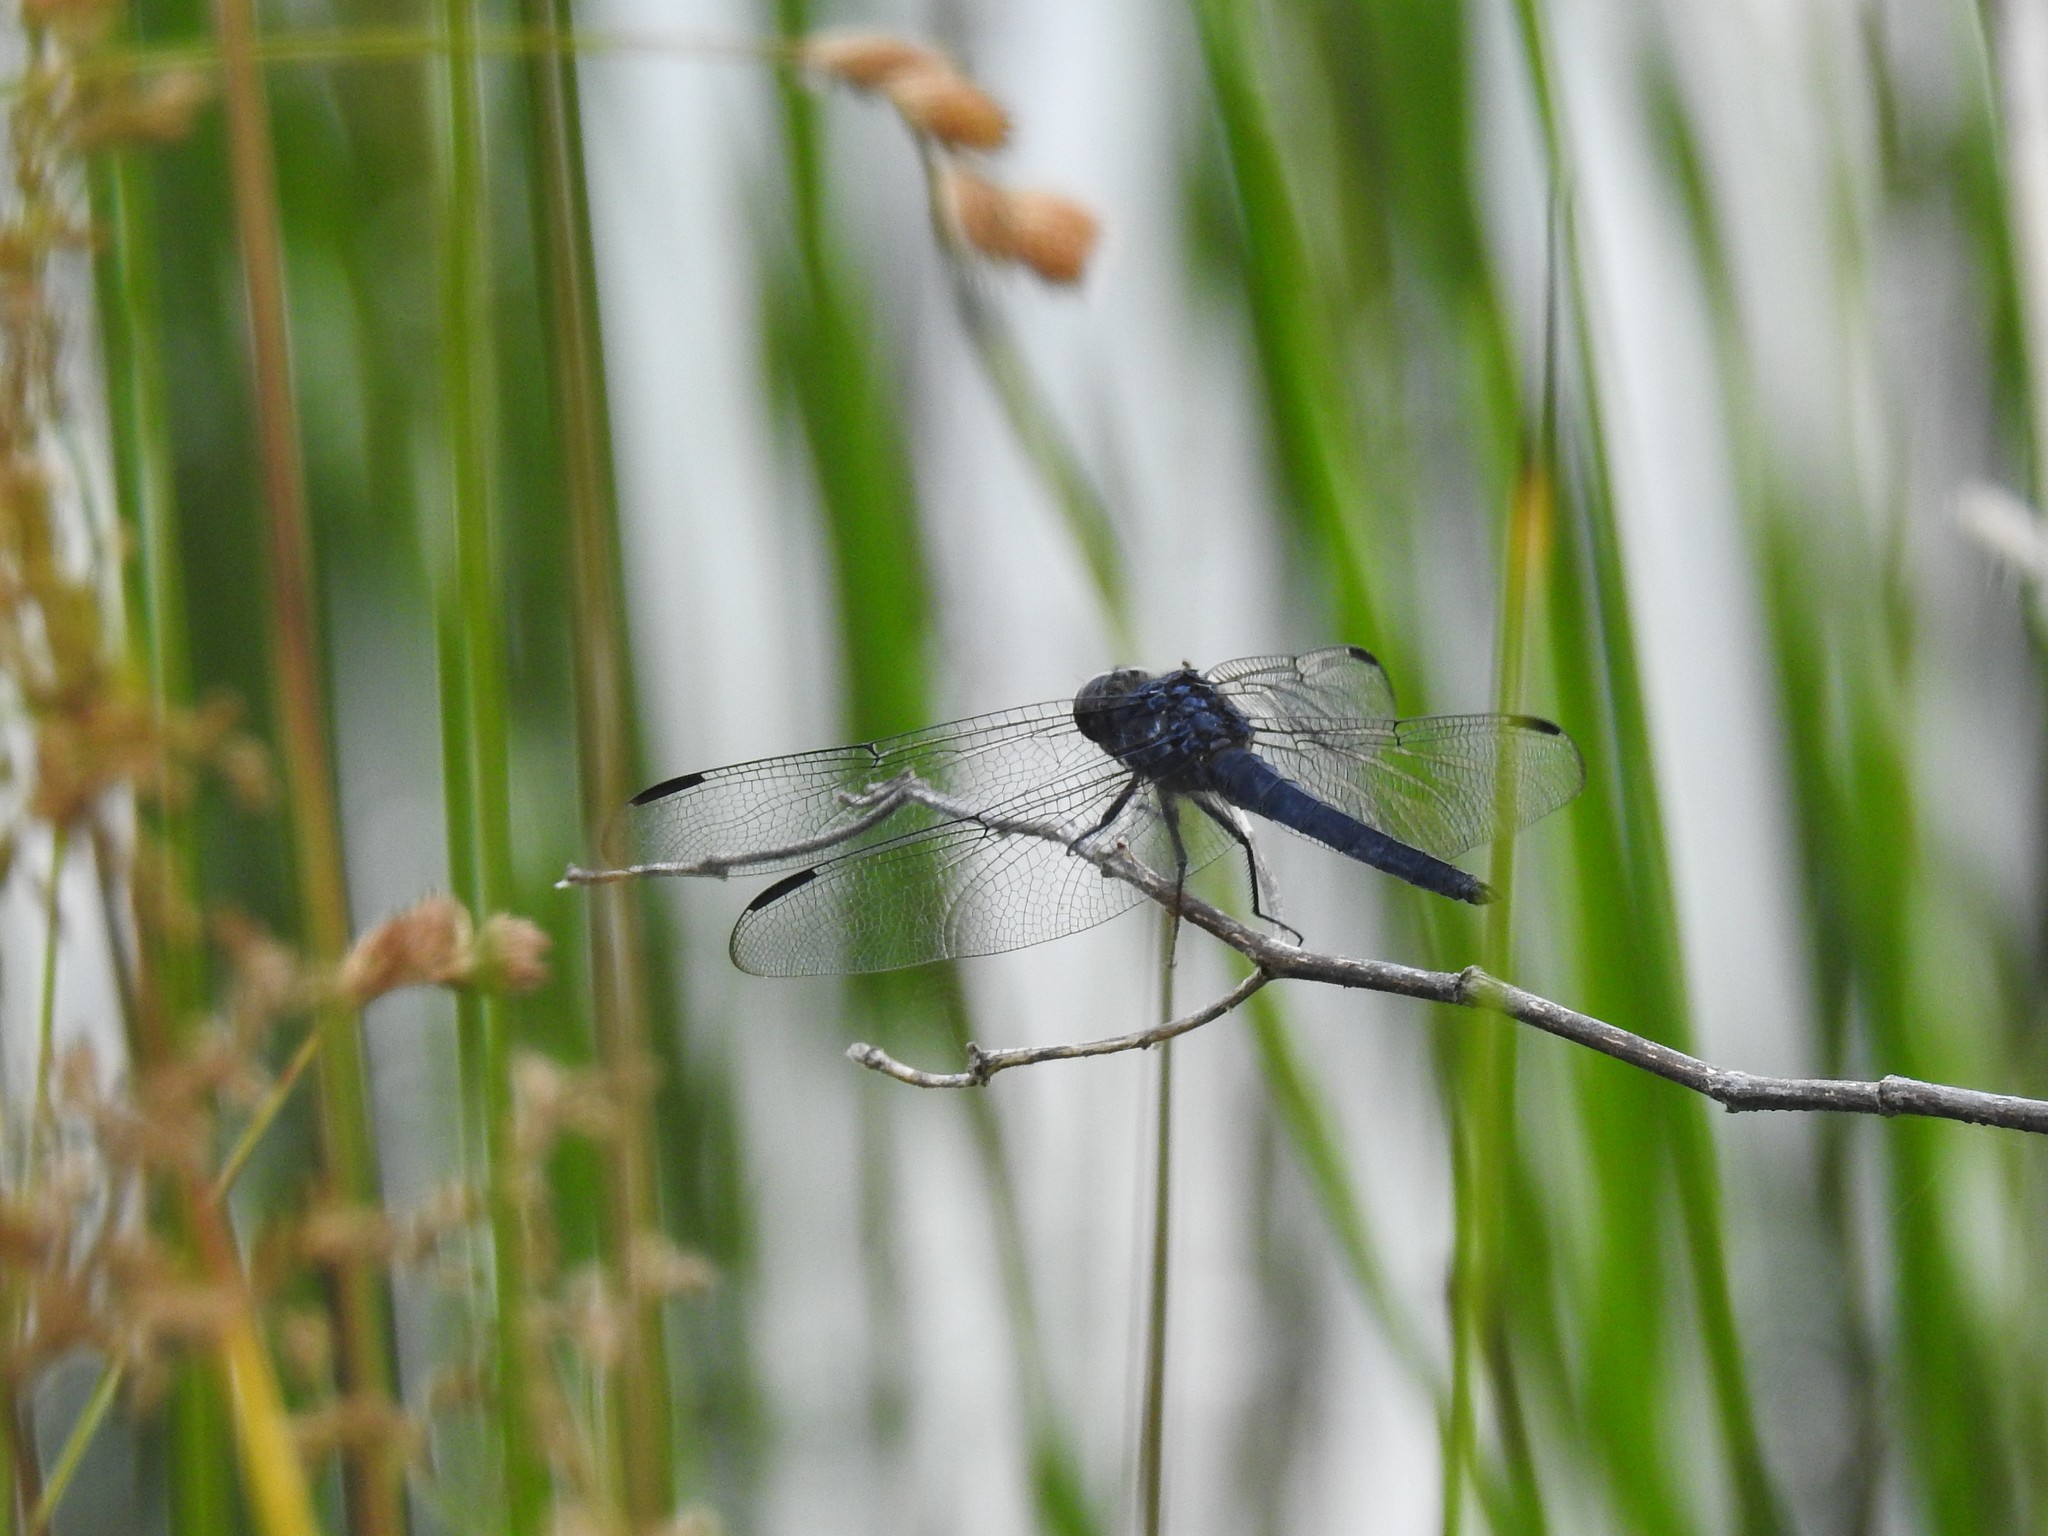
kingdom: Animalia
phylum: Arthropoda
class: Insecta
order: Odonata
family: Libellulidae
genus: Libellula
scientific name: Libellula incesta
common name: Slaty skimmer
